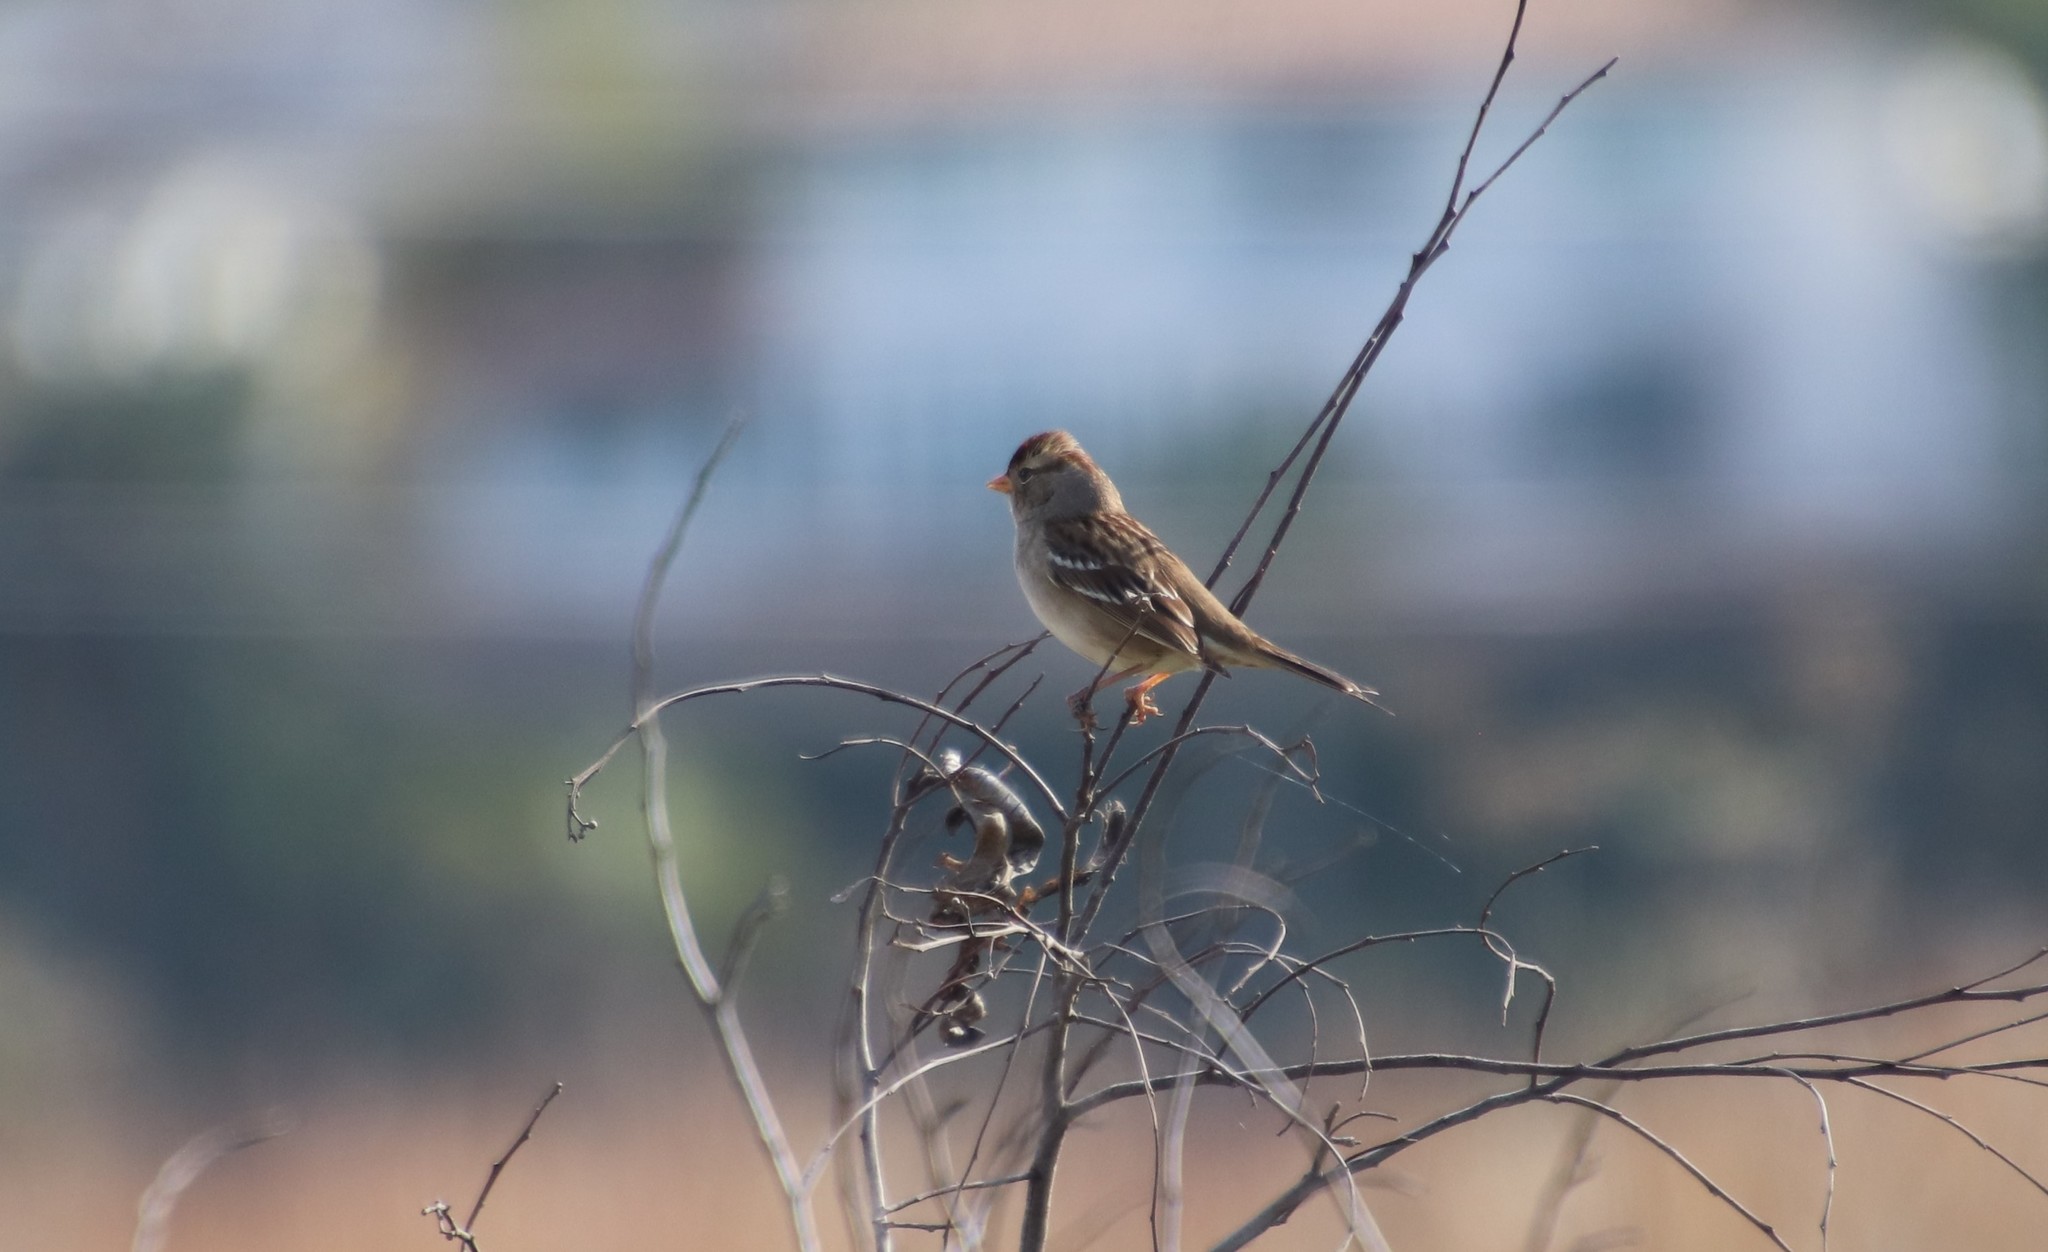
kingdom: Animalia
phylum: Chordata
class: Aves
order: Passeriformes
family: Passerellidae
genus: Zonotrichia
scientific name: Zonotrichia leucophrys
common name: White-crowned sparrow
